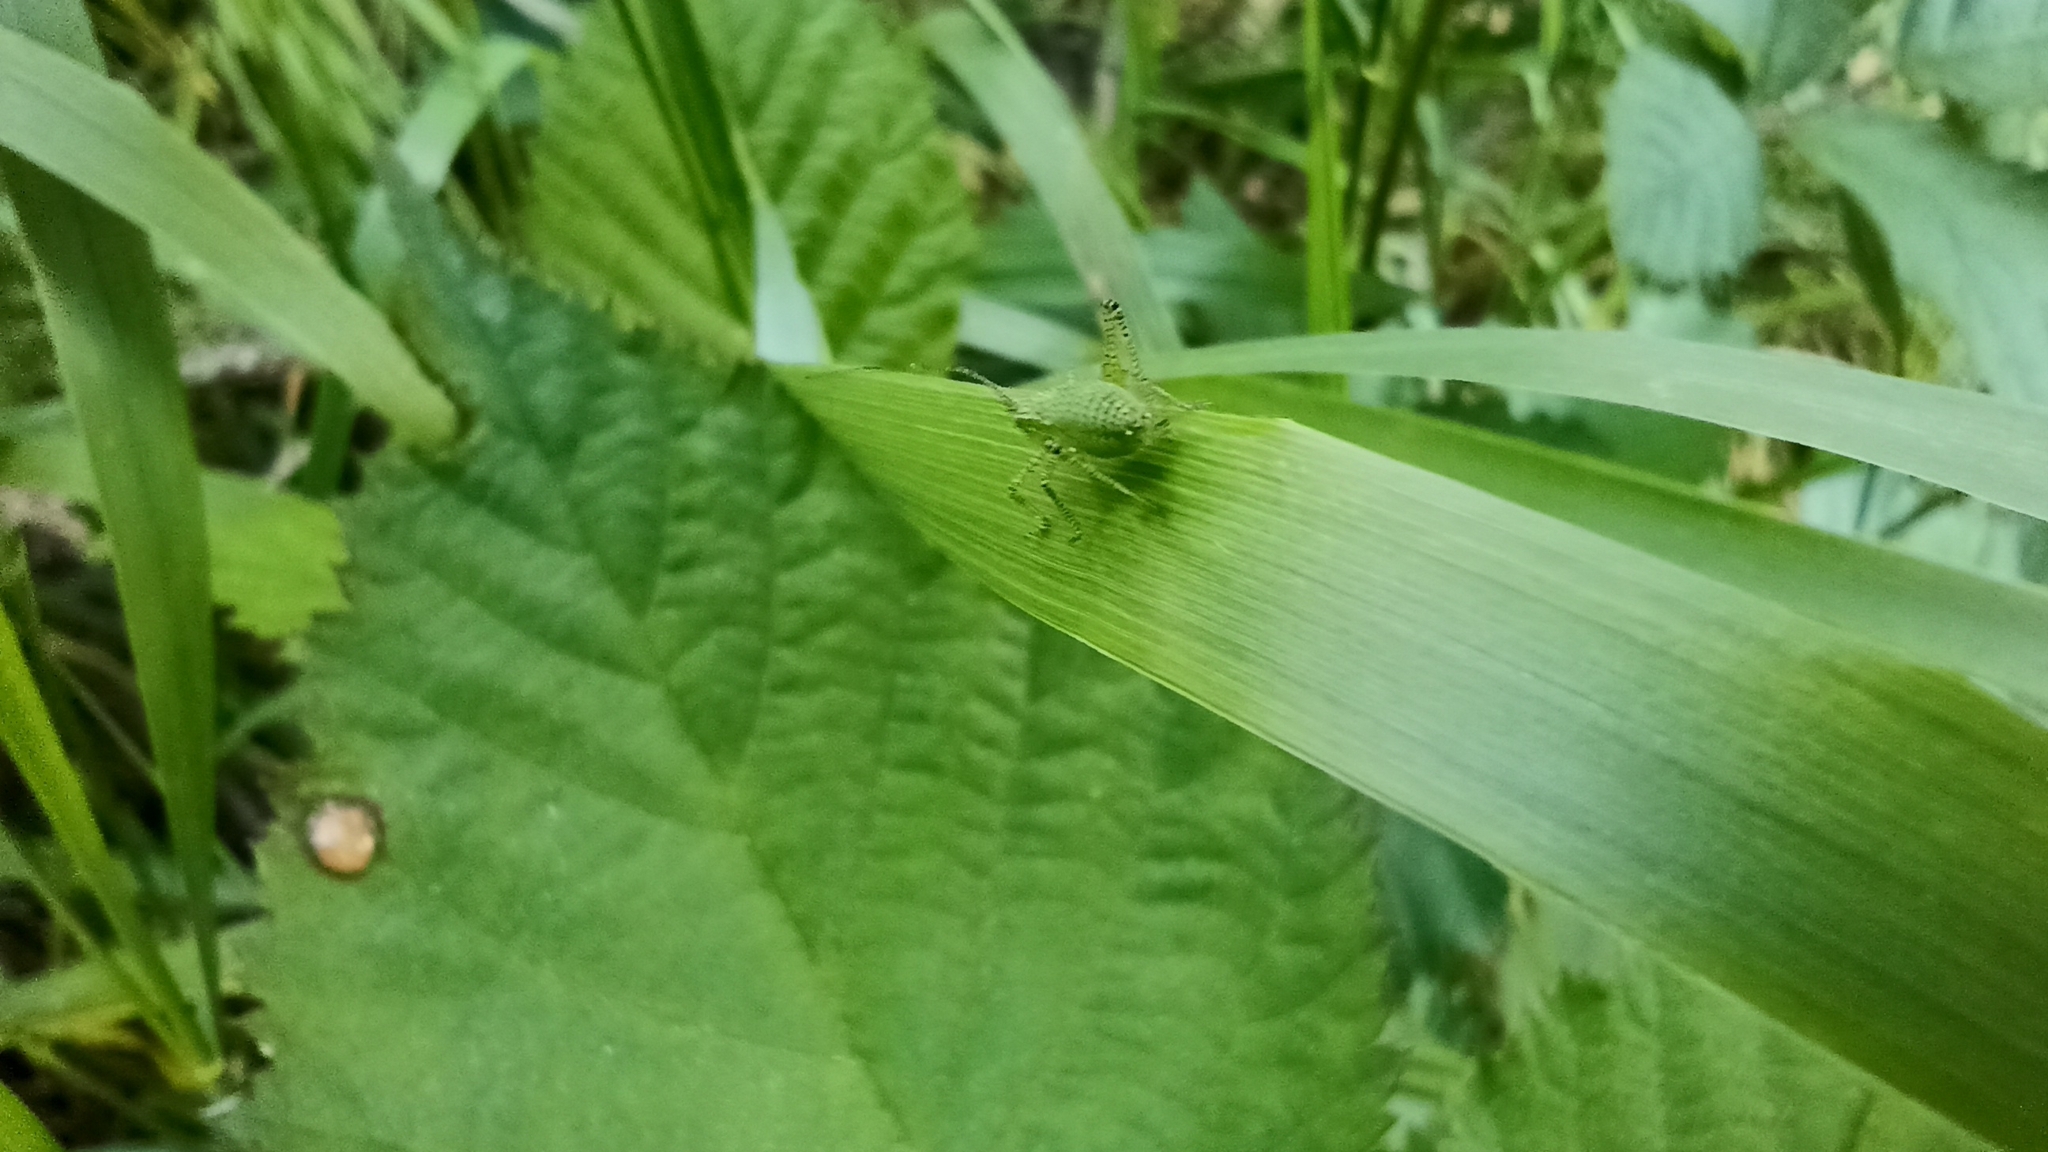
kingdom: Animalia
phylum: Arthropoda
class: Insecta
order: Orthoptera
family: Tettigoniidae
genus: Leptophyes
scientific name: Leptophyes punctatissima
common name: Speckled bush-cricket
